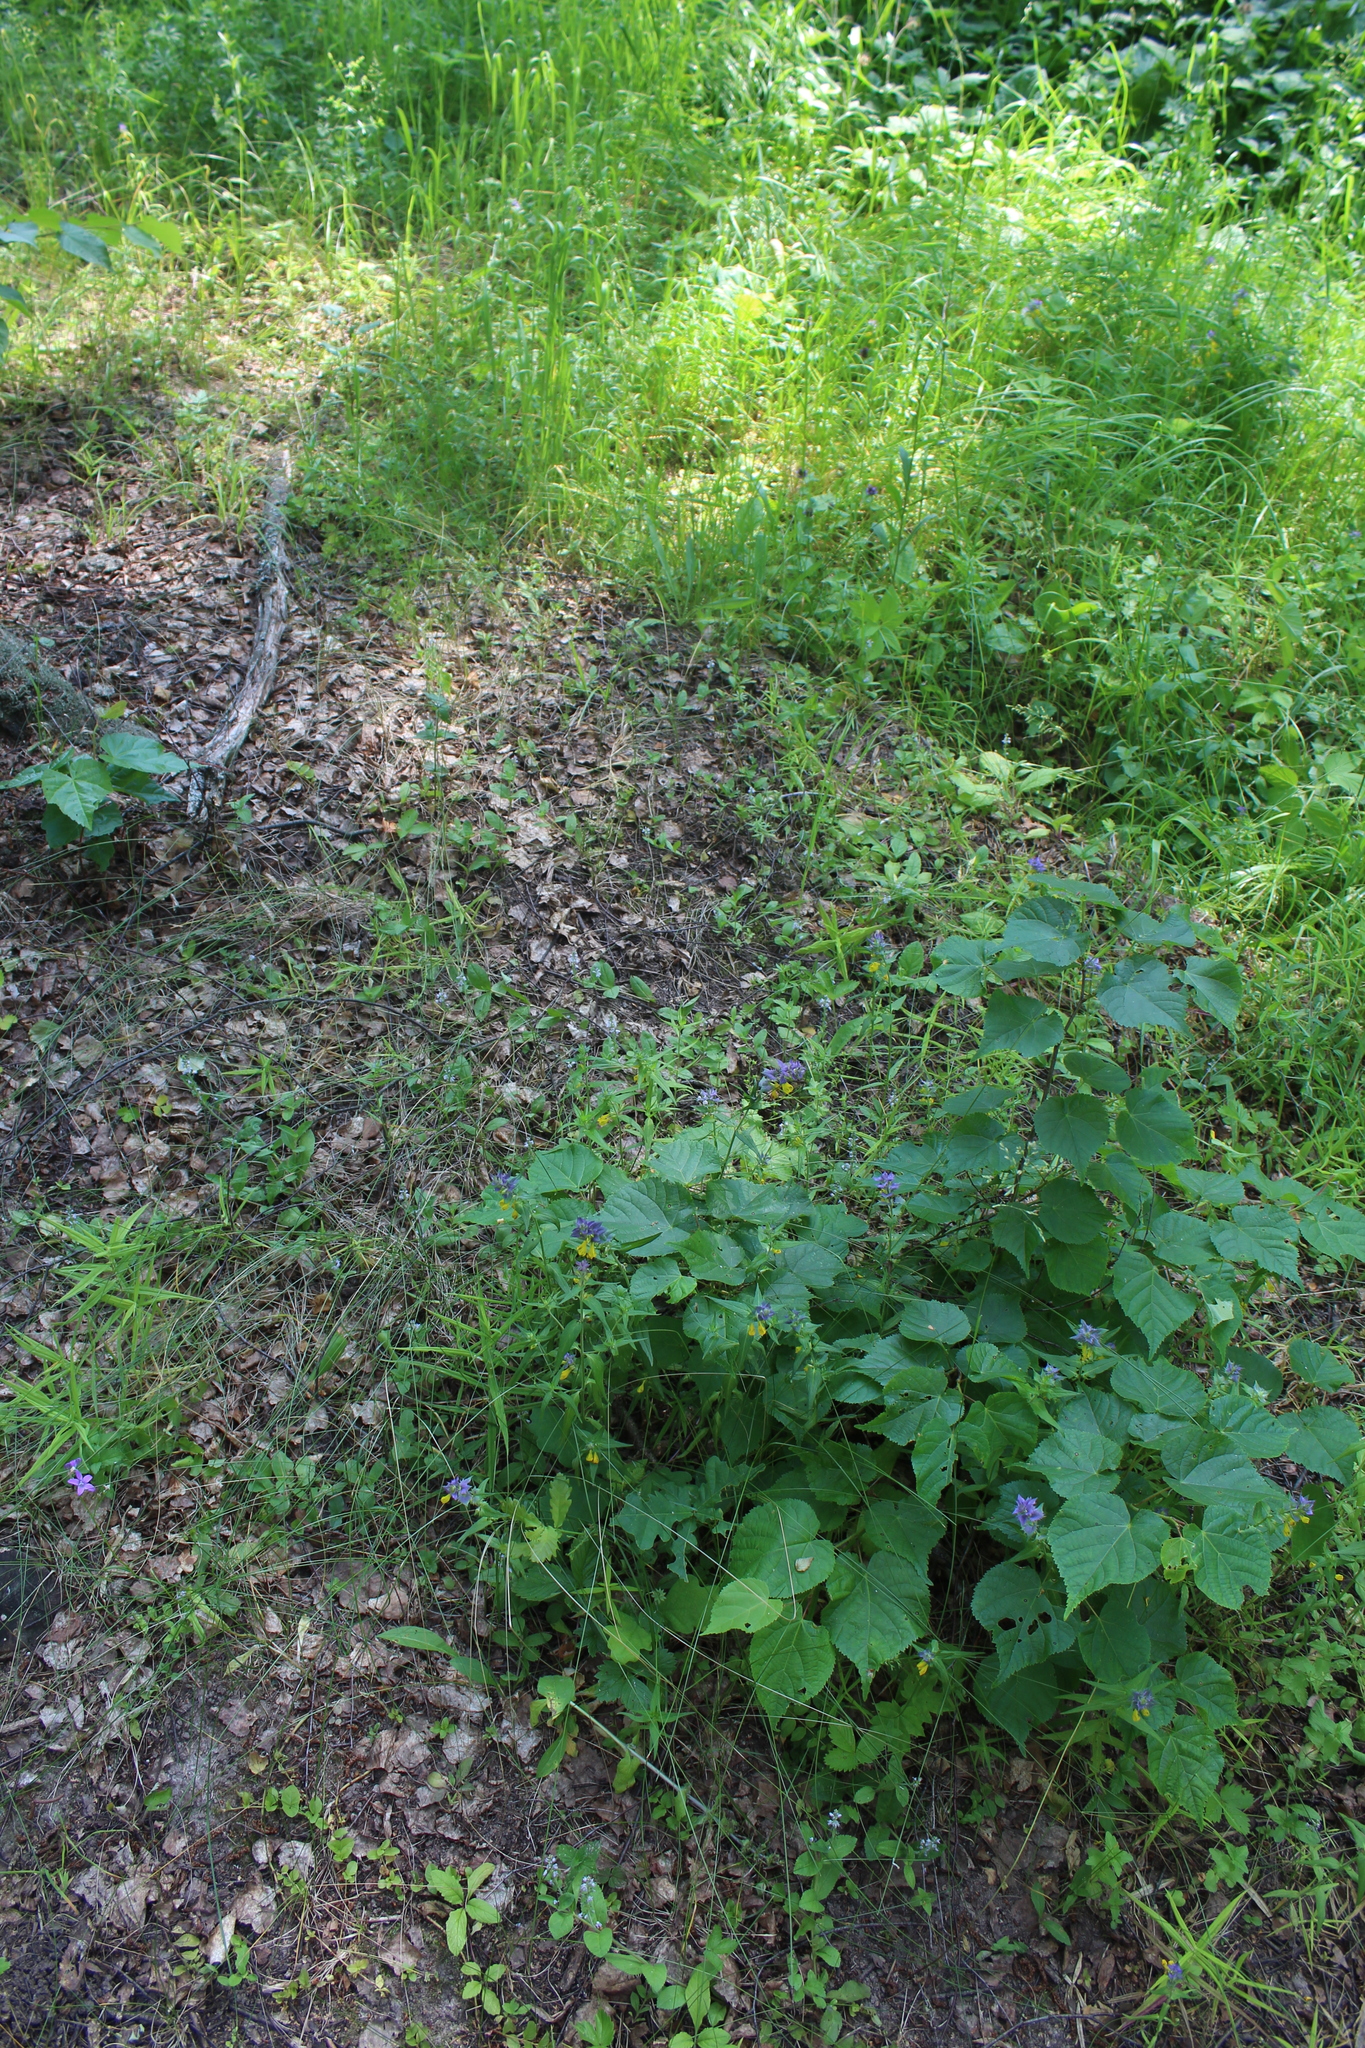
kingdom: Plantae
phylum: Tracheophyta
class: Magnoliopsida
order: Malvales
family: Malvaceae
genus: Tilia
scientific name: Tilia cordata
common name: Small-leaved lime
